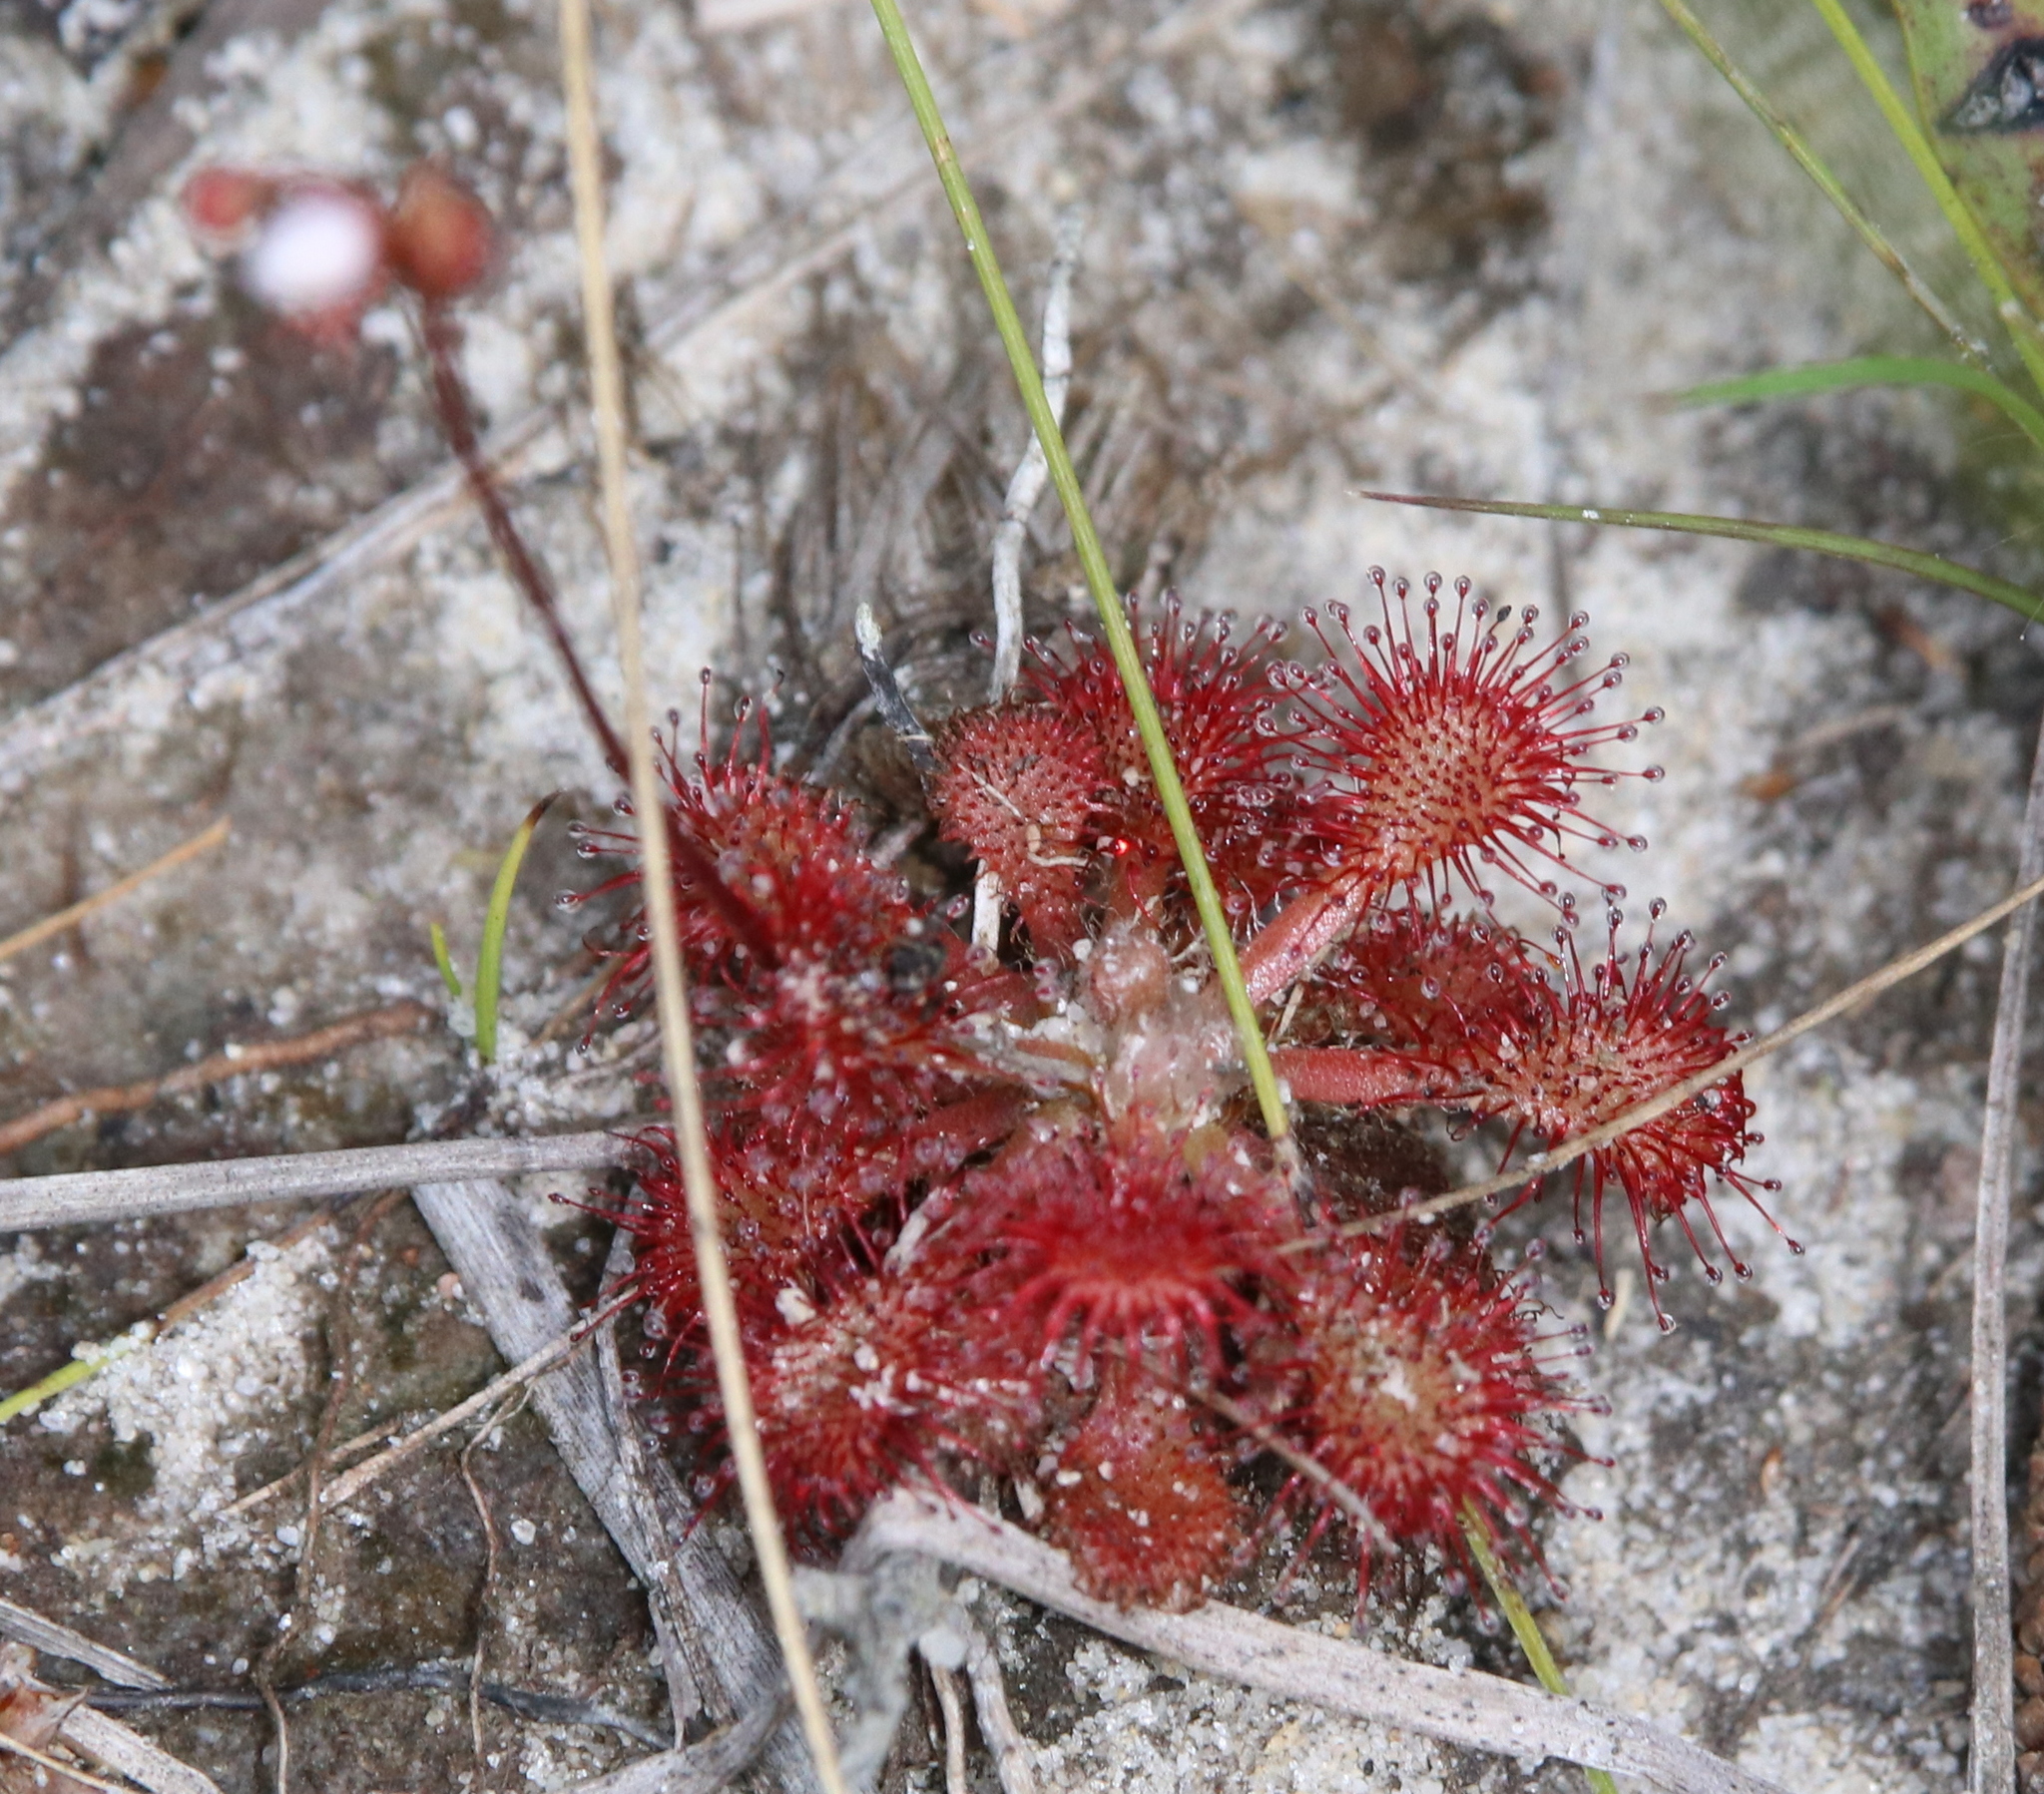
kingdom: Plantae
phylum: Tracheophyta
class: Magnoliopsida
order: Caryophyllales
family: Droseraceae
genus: Drosera
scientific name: Drosera capillaris
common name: Pink sundew
